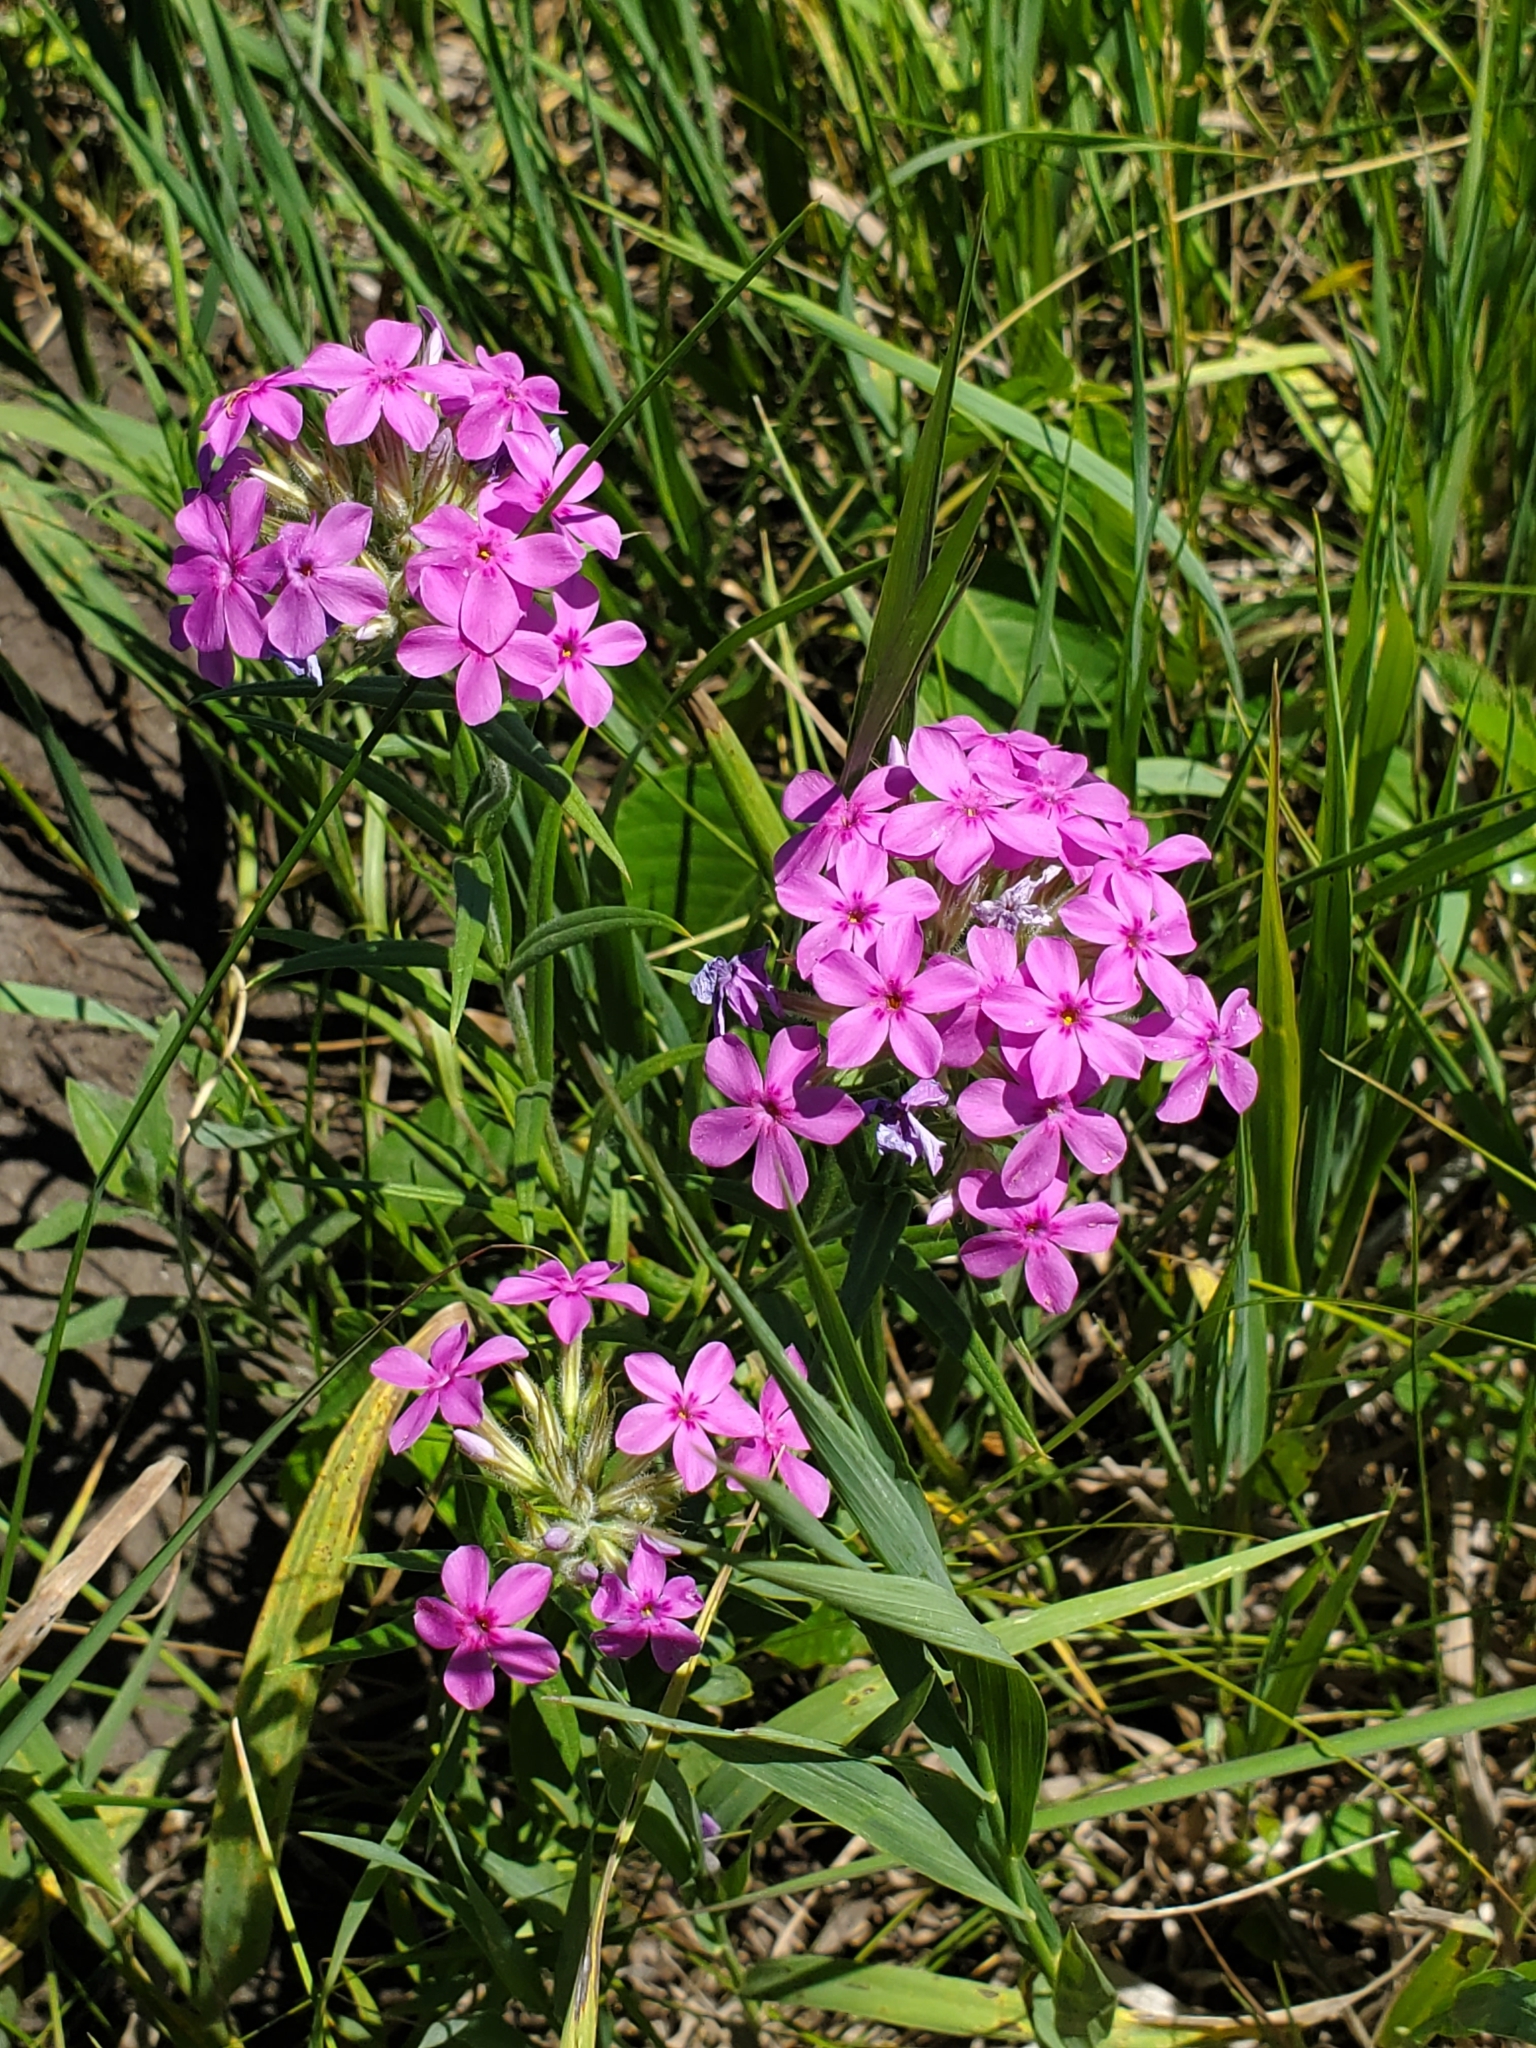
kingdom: Plantae
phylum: Tracheophyta
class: Magnoliopsida
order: Ericales
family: Polemoniaceae
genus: Phlox
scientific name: Phlox pilosa
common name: Prairie phlox
